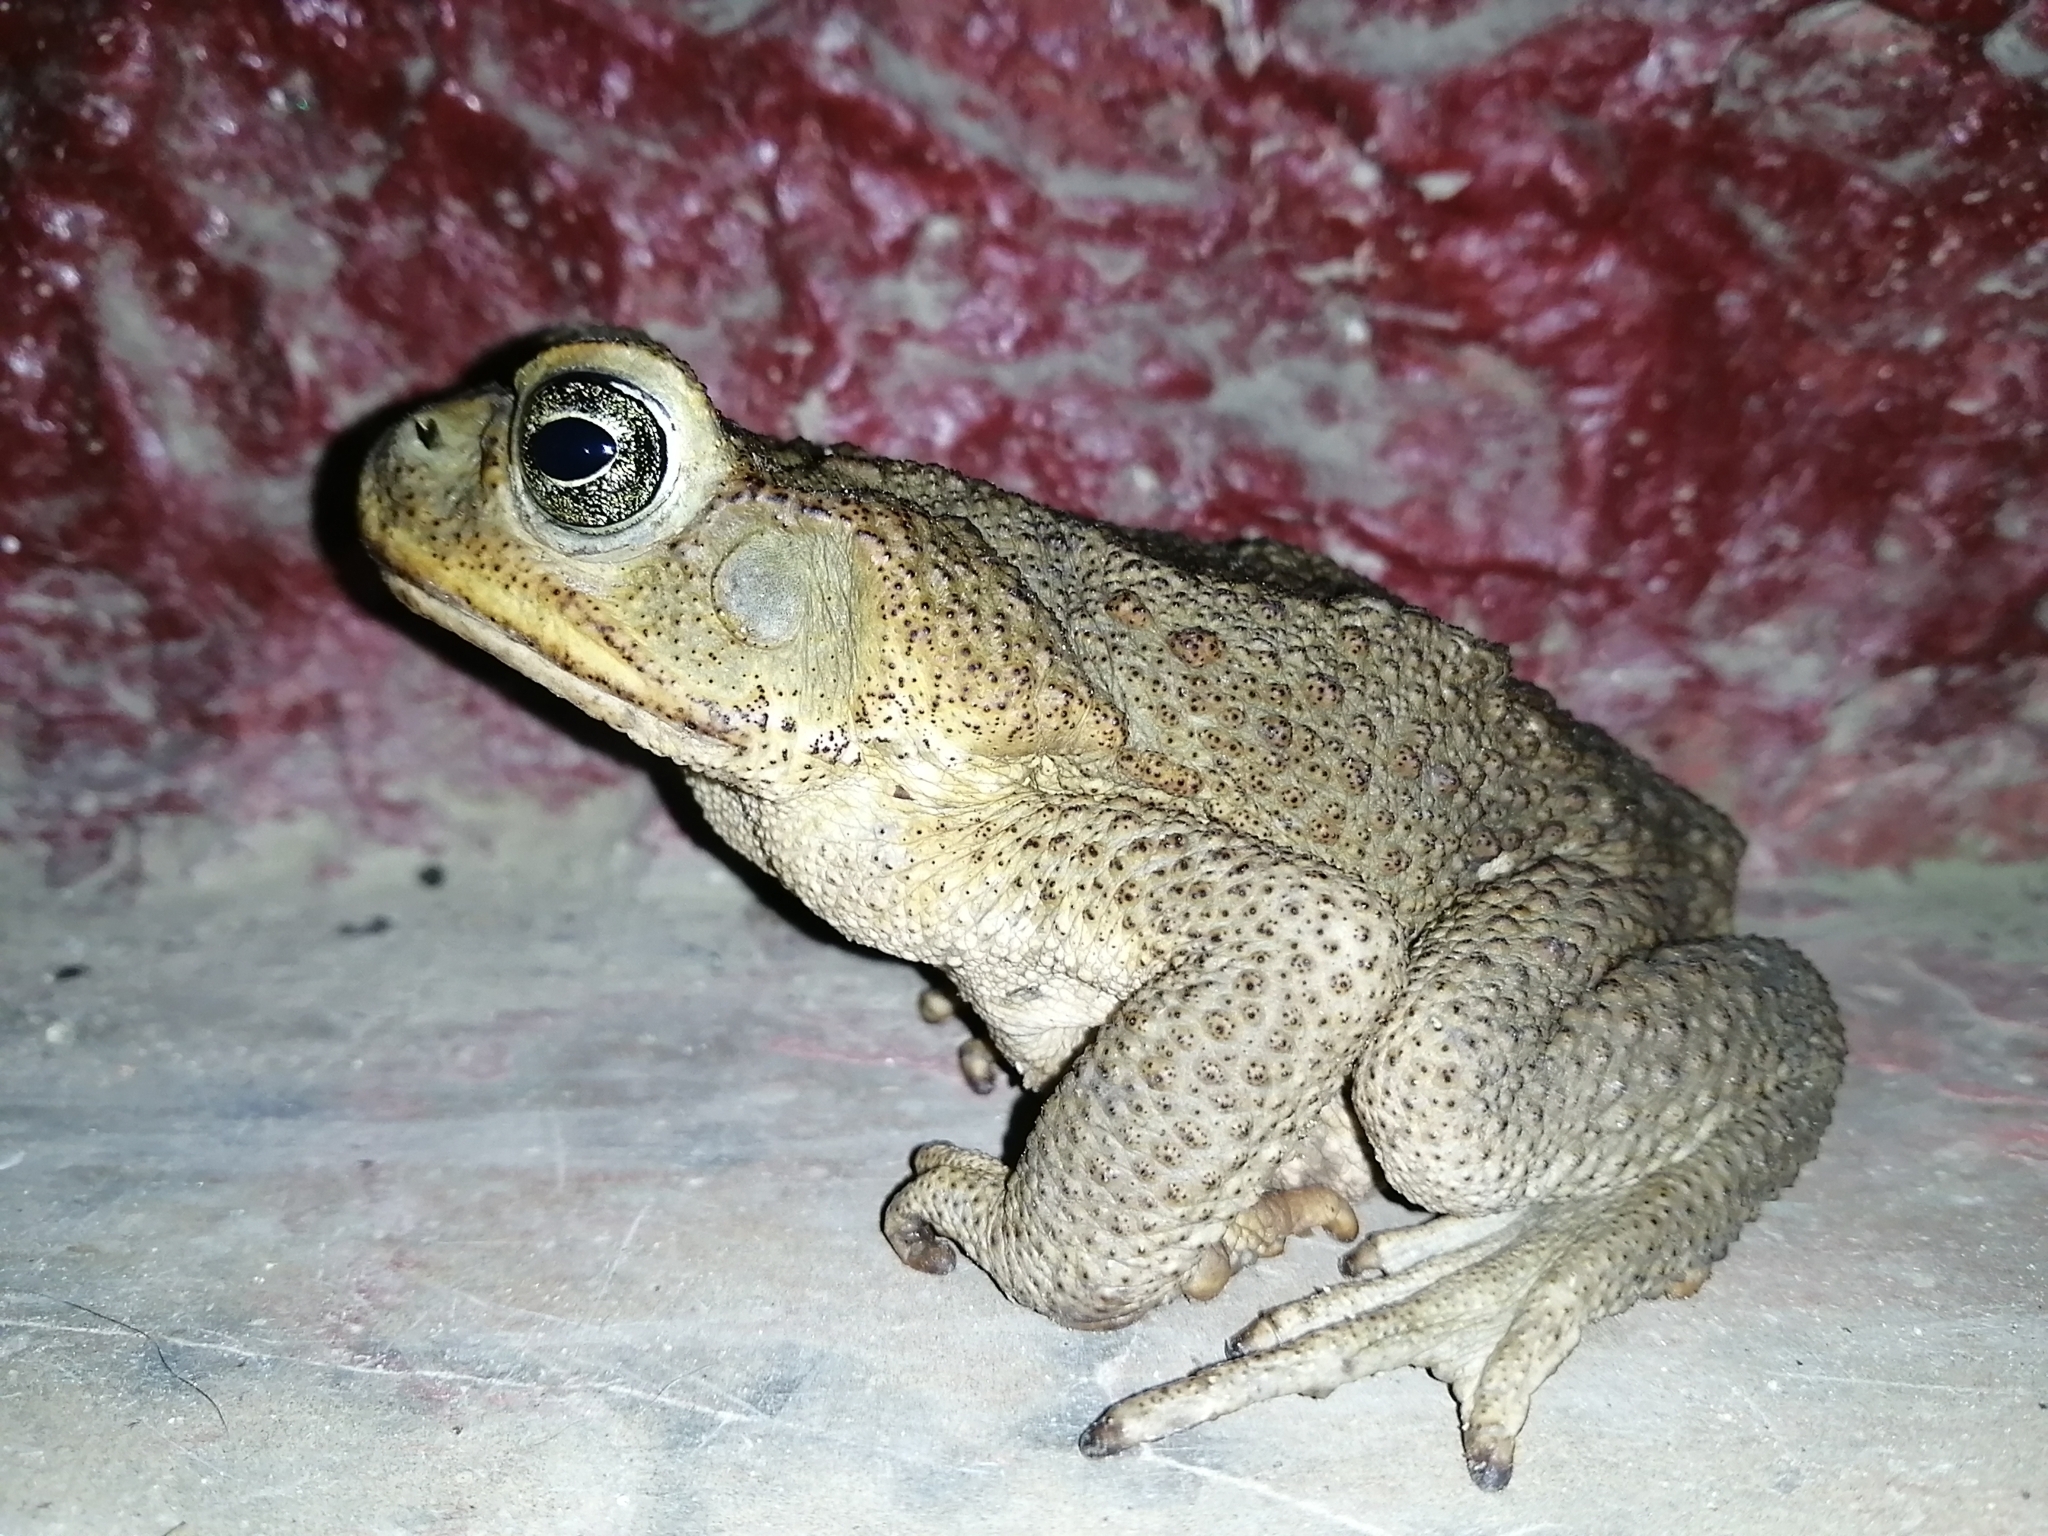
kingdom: Animalia
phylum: Chordata
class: Amphibia
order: Anura
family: Bufonidae
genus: Rhinella
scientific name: Rhinella horribilis
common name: Mesoamerican cane toad
